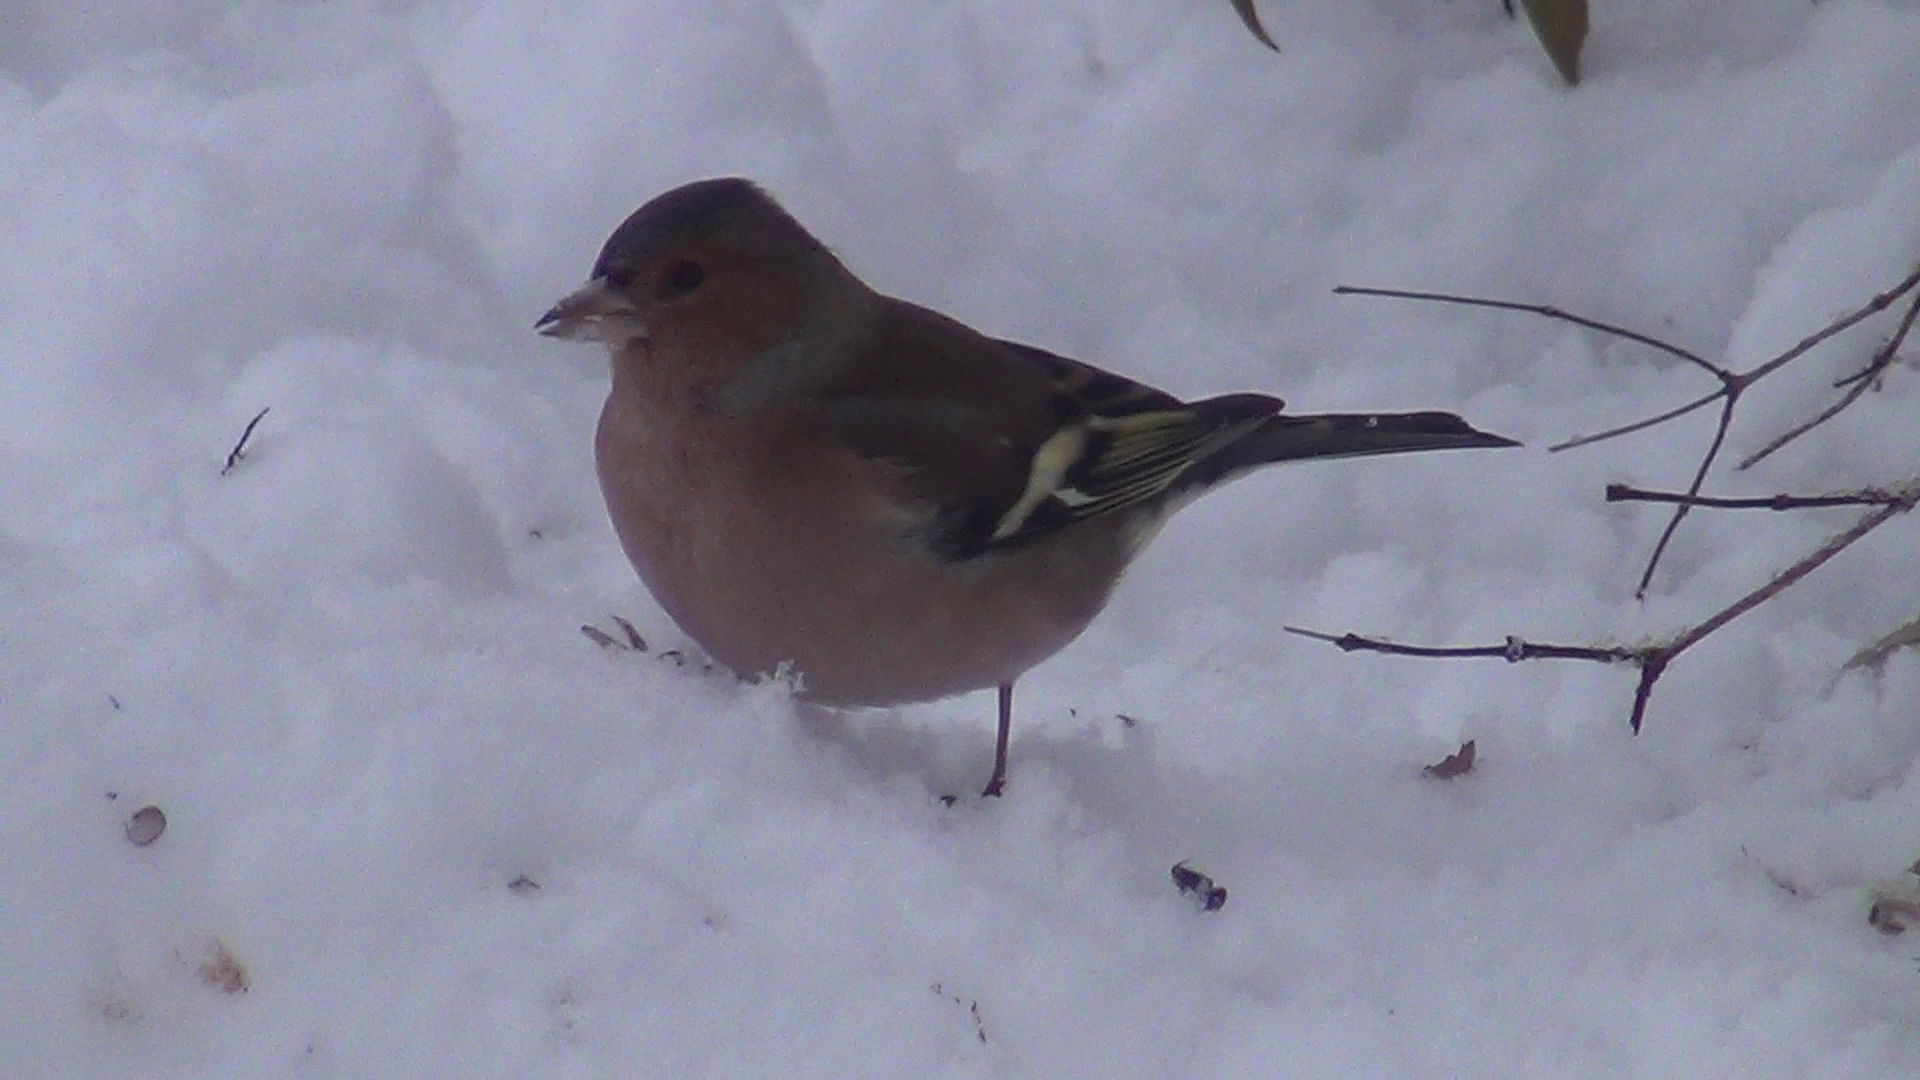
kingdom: Animalia
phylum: Chordata
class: Aves
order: Passeriformes
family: Fringillidae
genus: Fringilla
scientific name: Fringilla coelebs
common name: Common chaffinch
